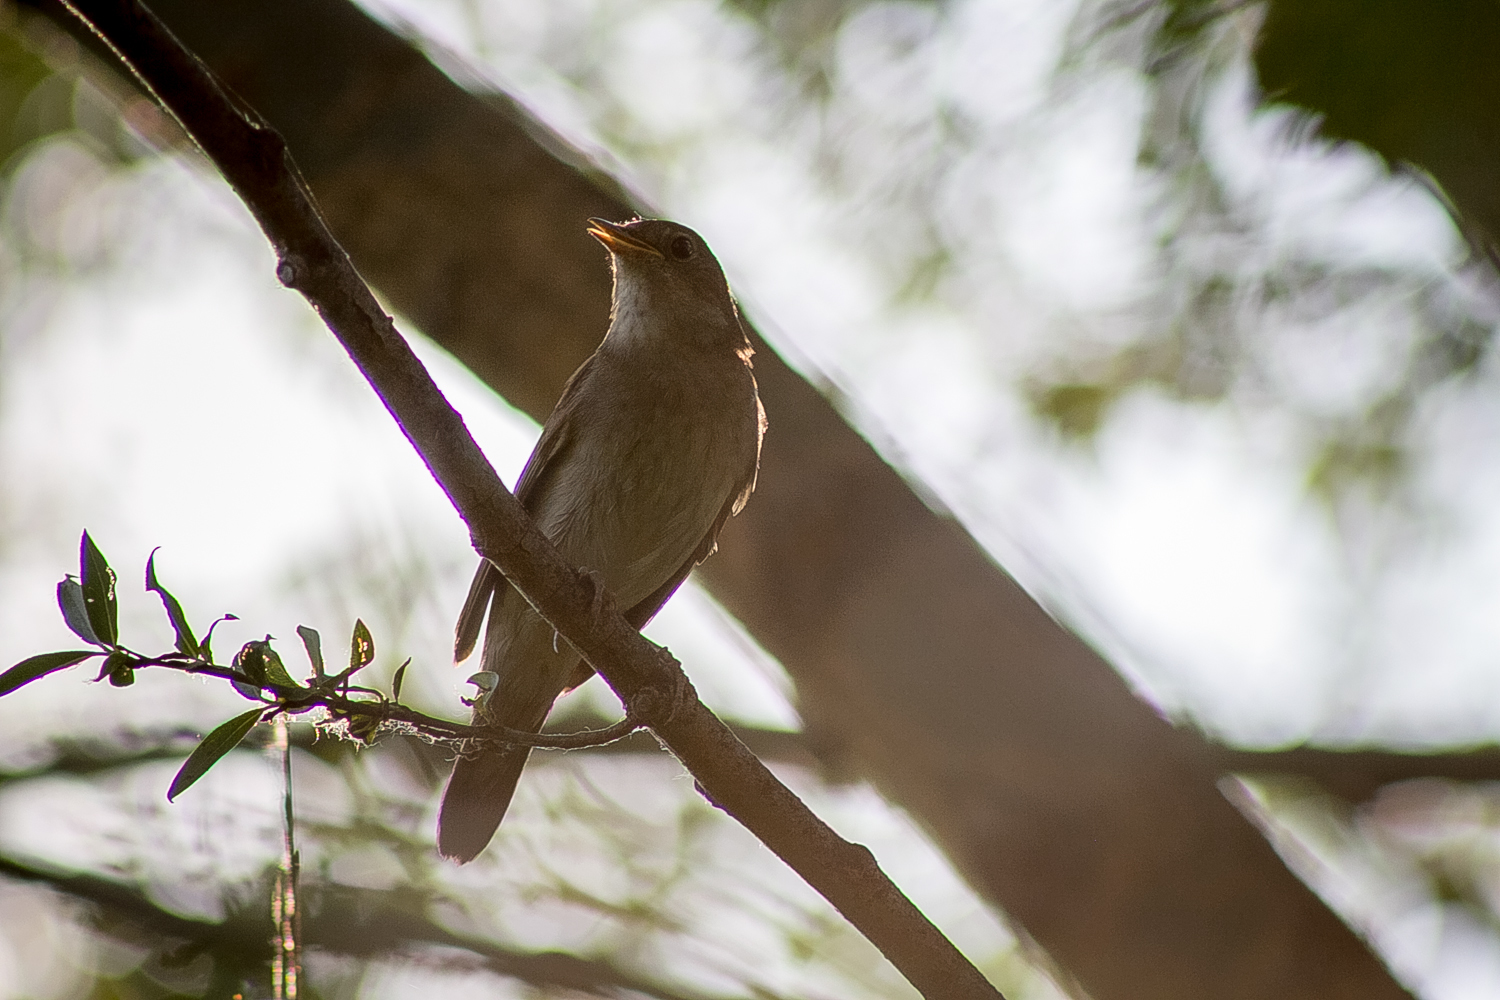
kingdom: Animalia
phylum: Chordata
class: Aves
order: Passeriformes
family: Muscicapidae
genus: Luscinia
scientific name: Luscinia luscinia
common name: Thrush nightingale
